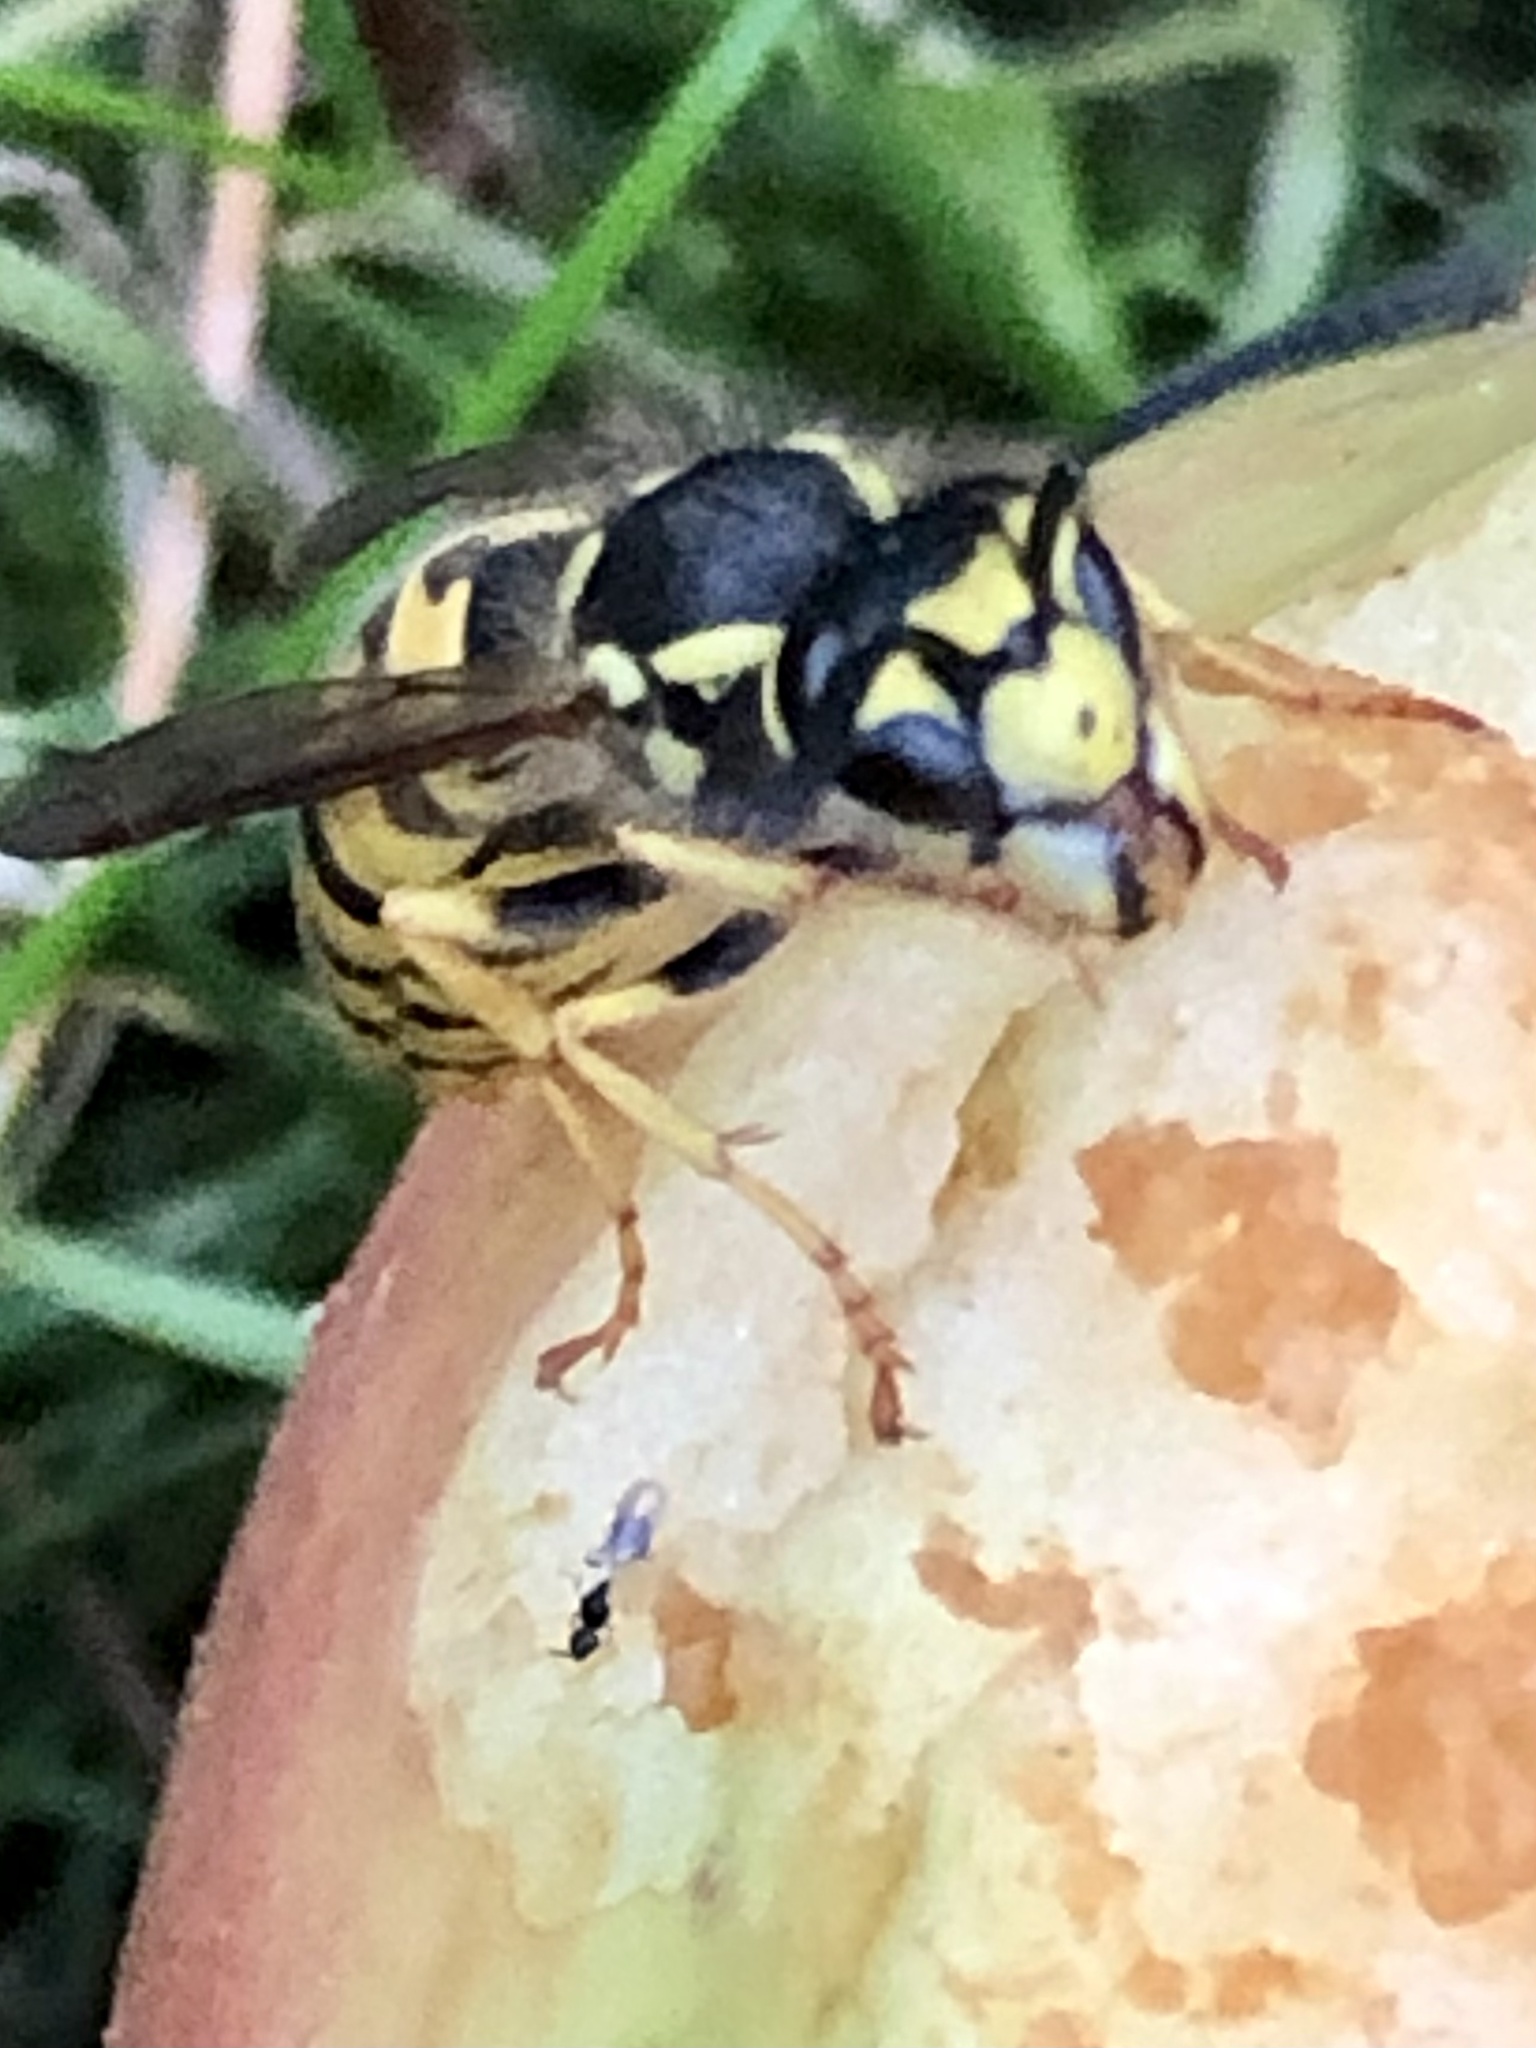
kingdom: Animalia
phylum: Arthropoda
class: Insecta
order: Hymenoptera
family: Vespidae
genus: Vespula
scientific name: Vespula germanica
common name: German wasp
